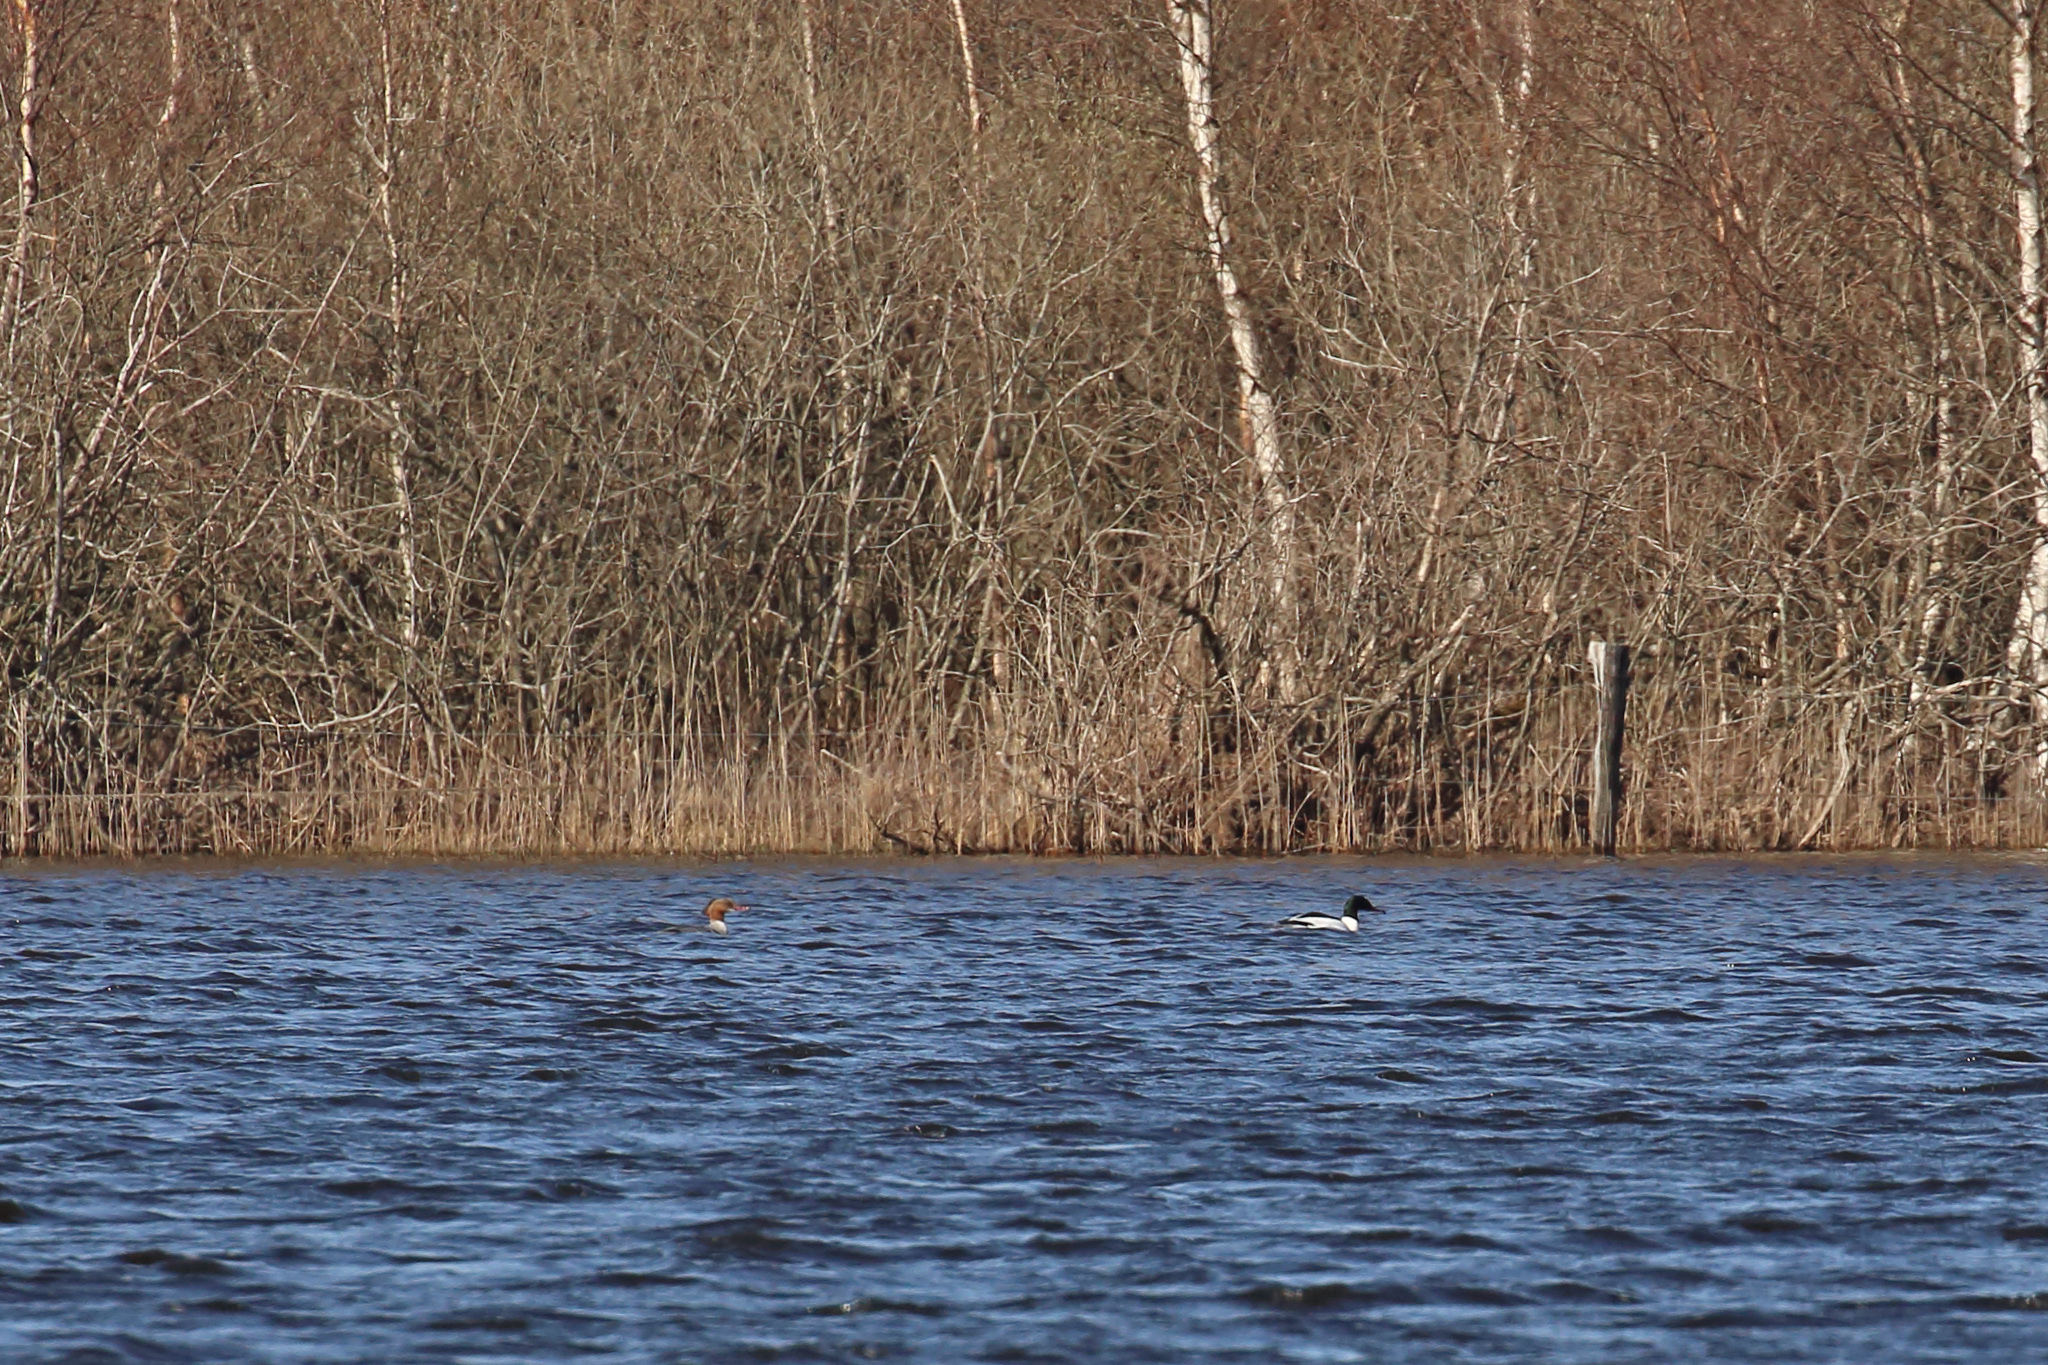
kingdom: Animalia
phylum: Chordata
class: Aves
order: Anseriformes
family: Anatidae
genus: Mergus
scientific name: Mergus merganser
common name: Common merganser
